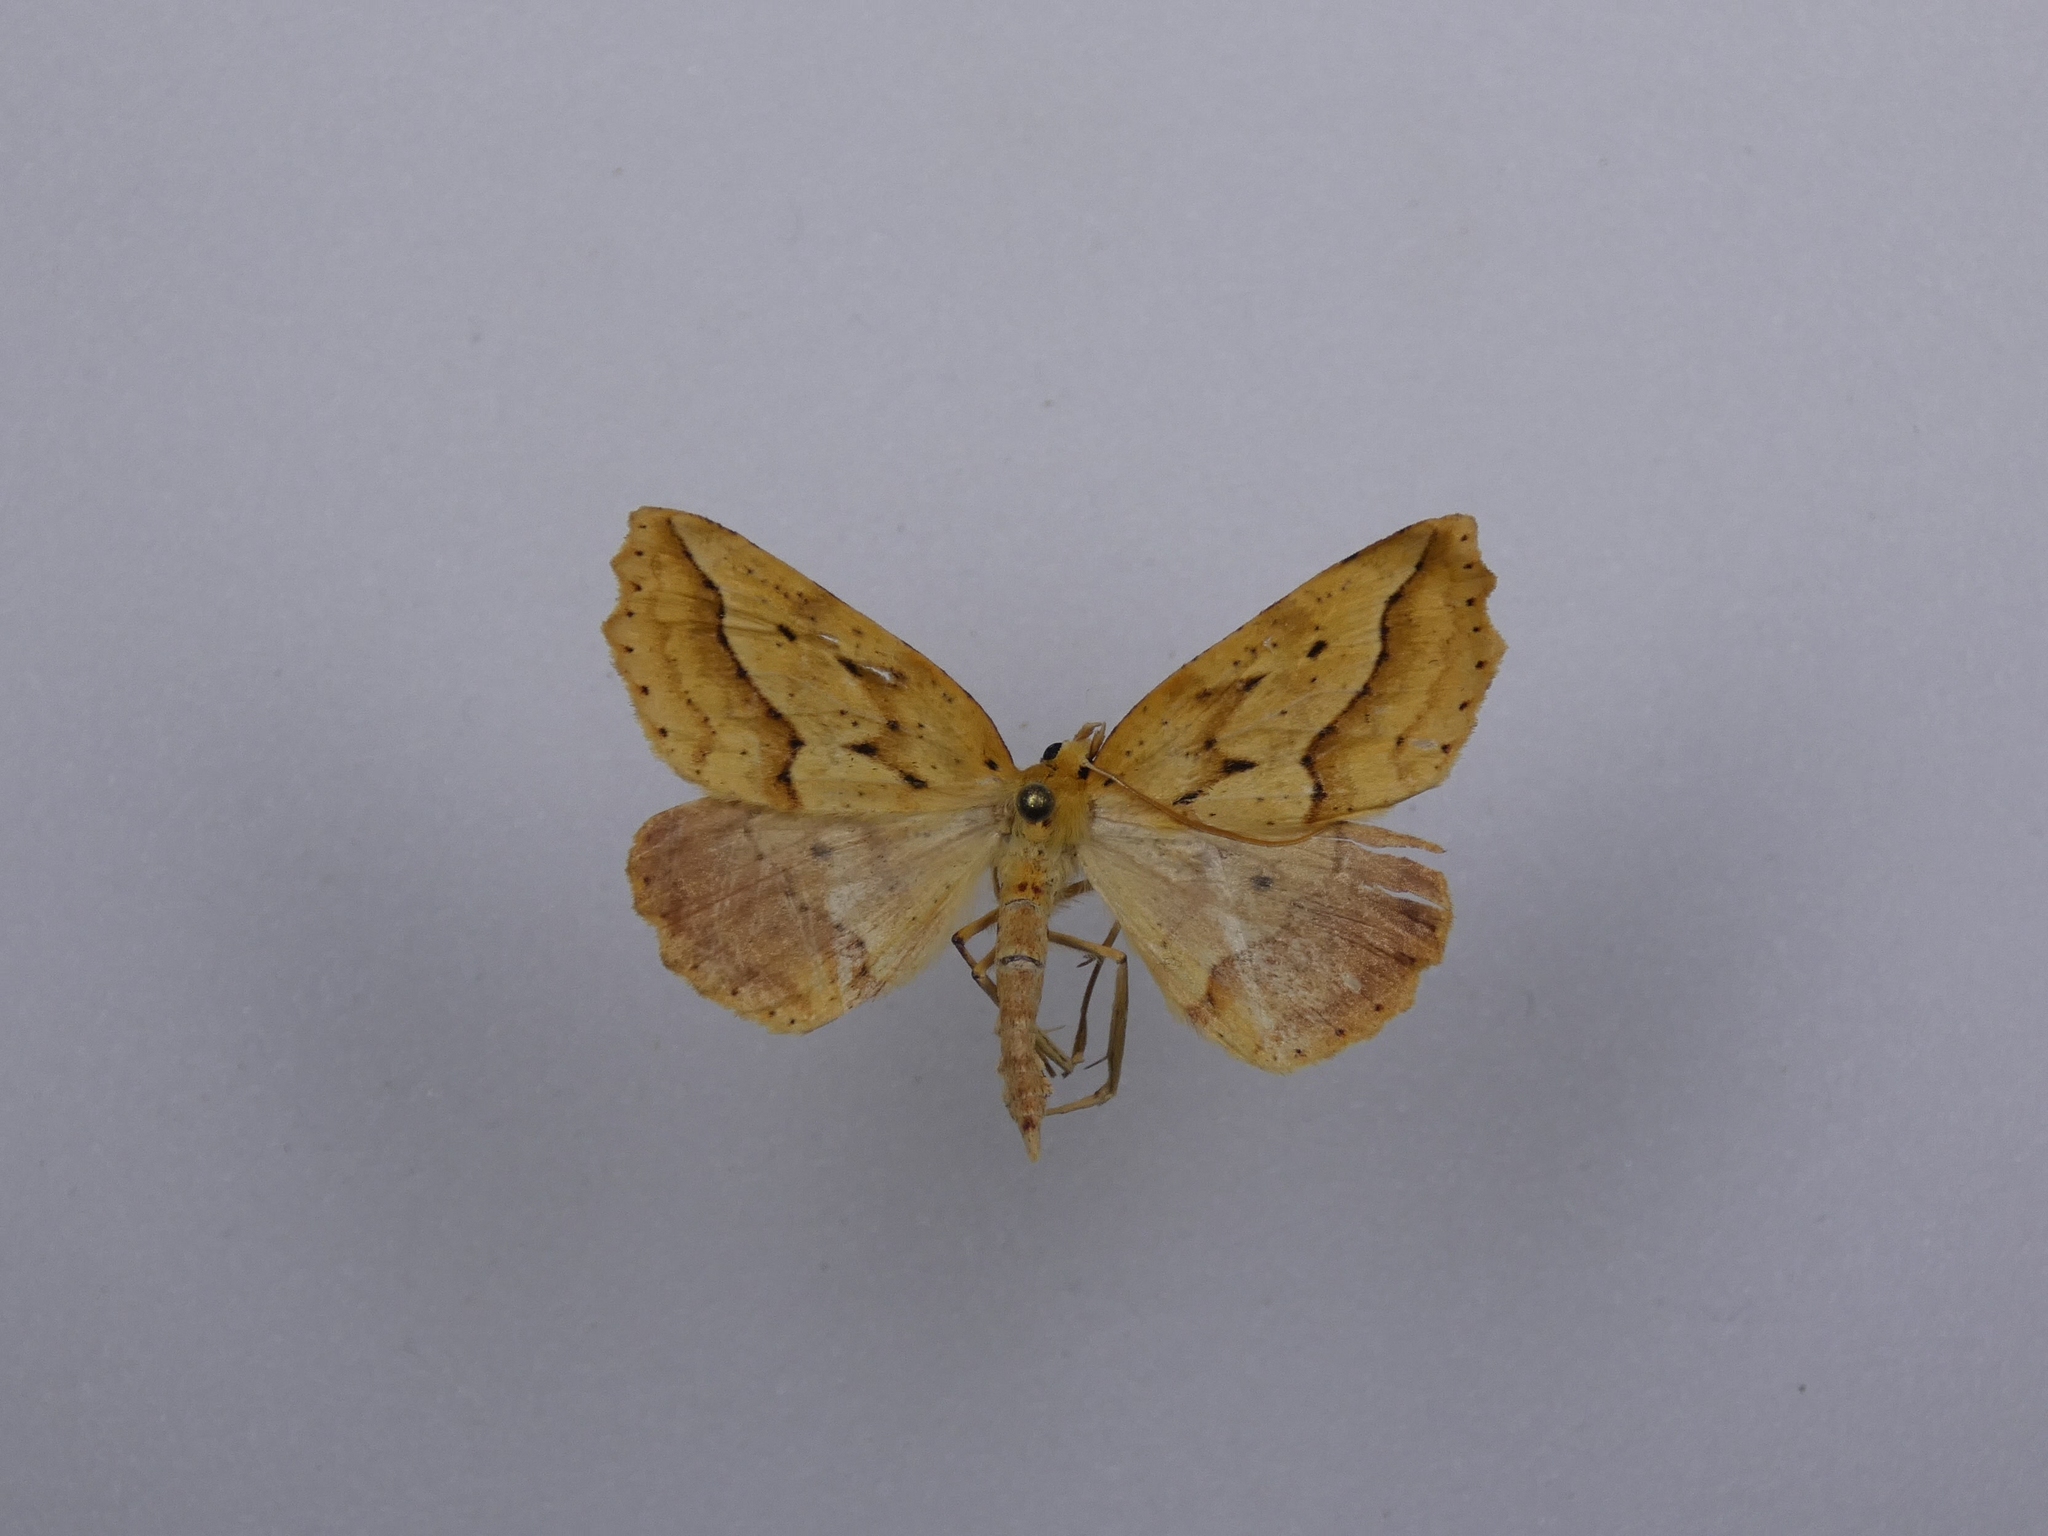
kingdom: Animalia
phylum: Arthropoda
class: Insecta
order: Lepidoptera
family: Geometridae
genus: Ischalis
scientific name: Ischalis variabilis
